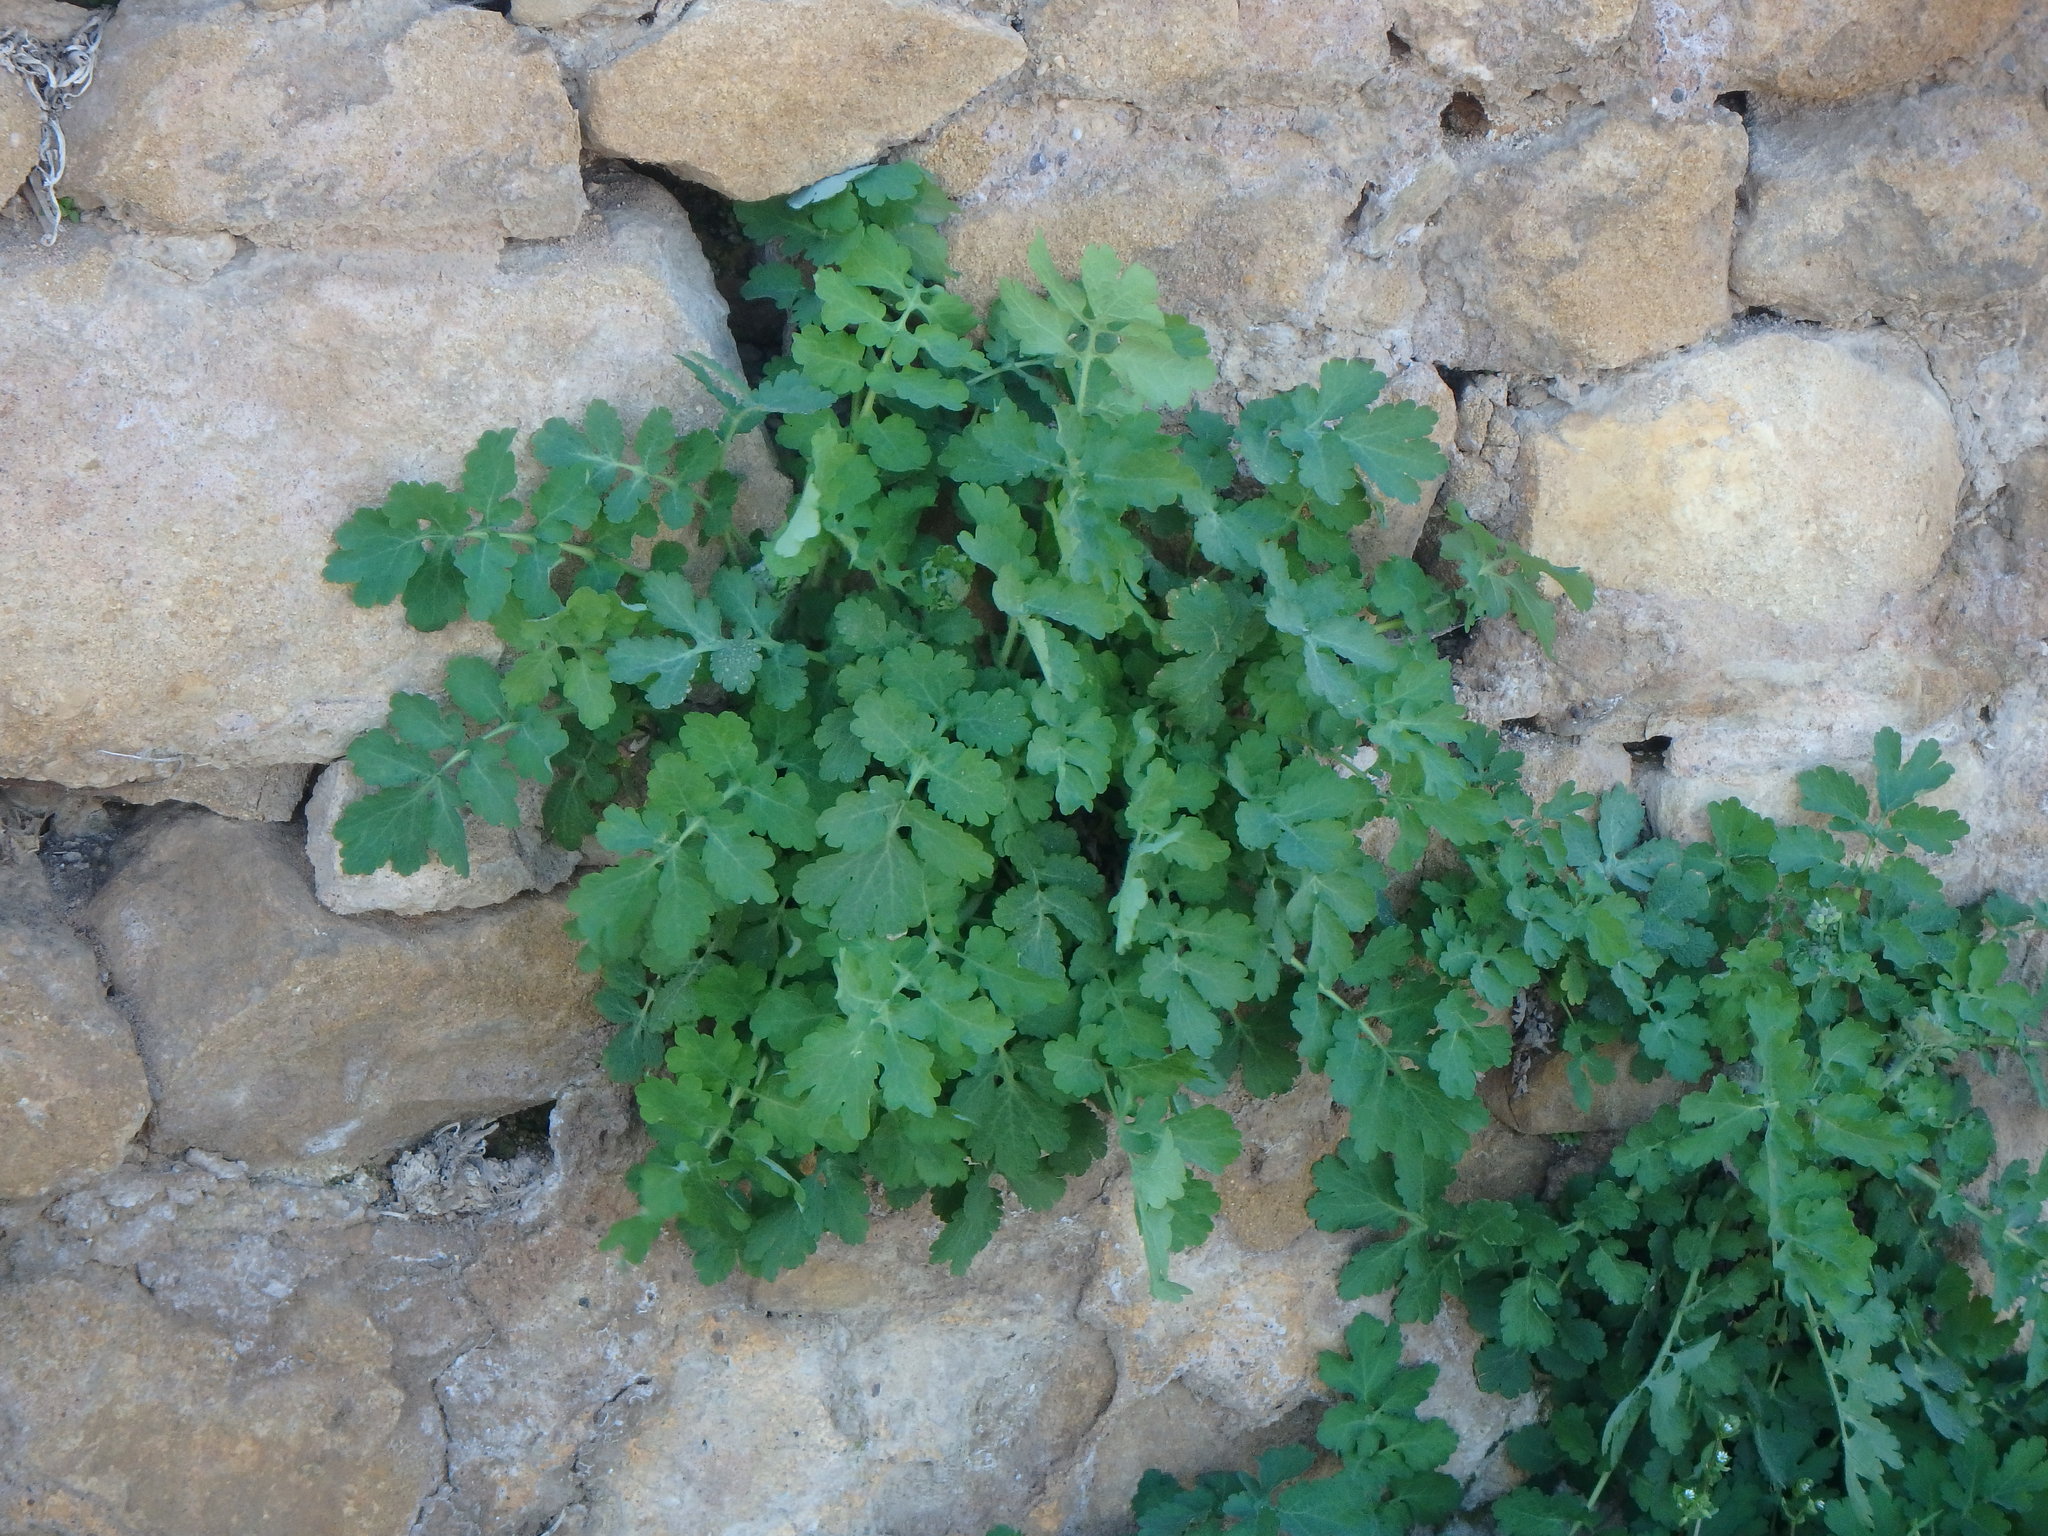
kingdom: Plantae
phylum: Tracheophyta
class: Magnoliopsida
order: Ranunculales
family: Papaveraceae
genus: Chelidonium
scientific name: Chelidonium majus
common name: Greater celandine
